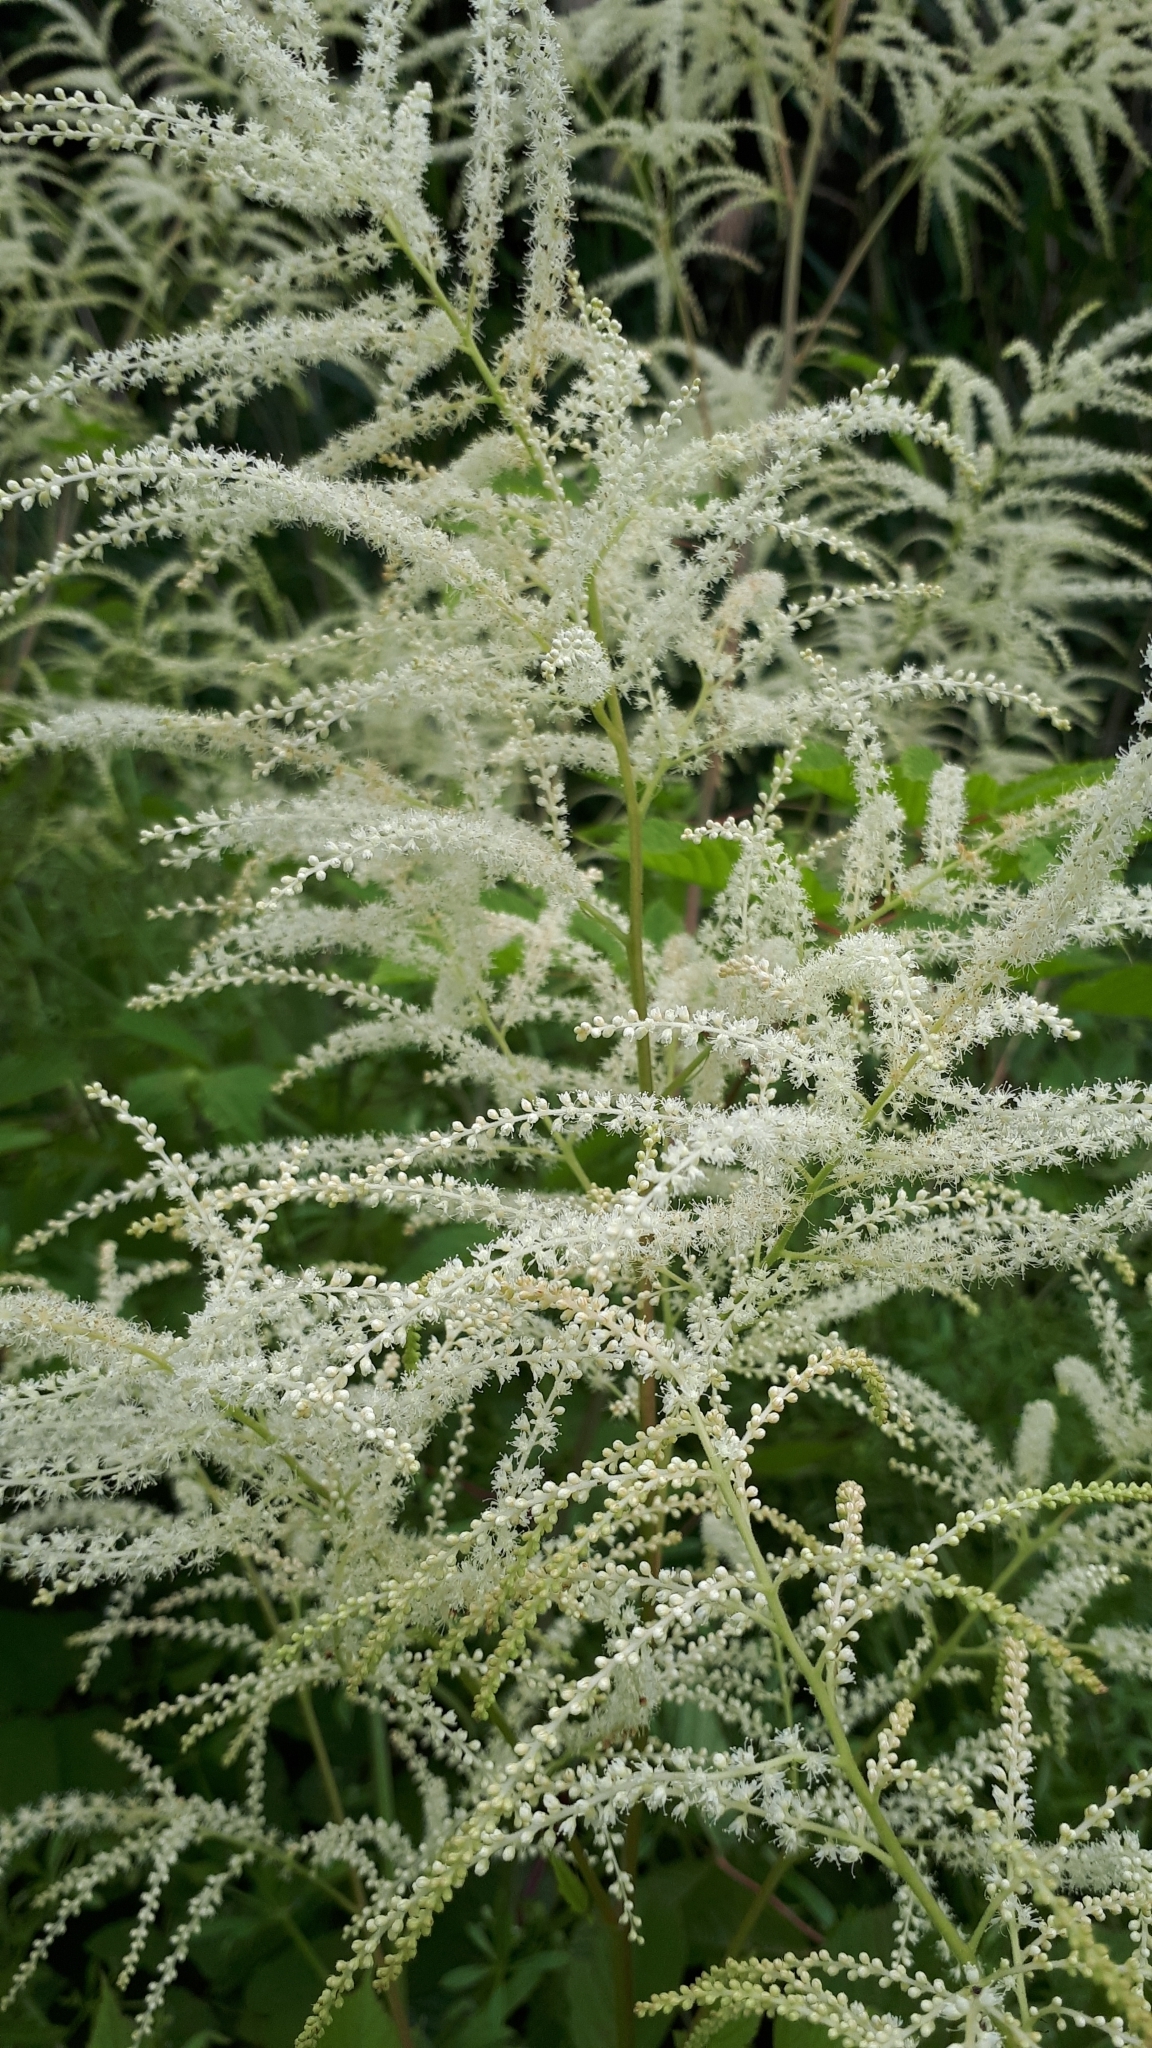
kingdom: Plantae
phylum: Tracheophyta
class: Magnoliopsida
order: Rosales
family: Rosaceae
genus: Aruncus
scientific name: Aruncus dioicus
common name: Buck's-beard
